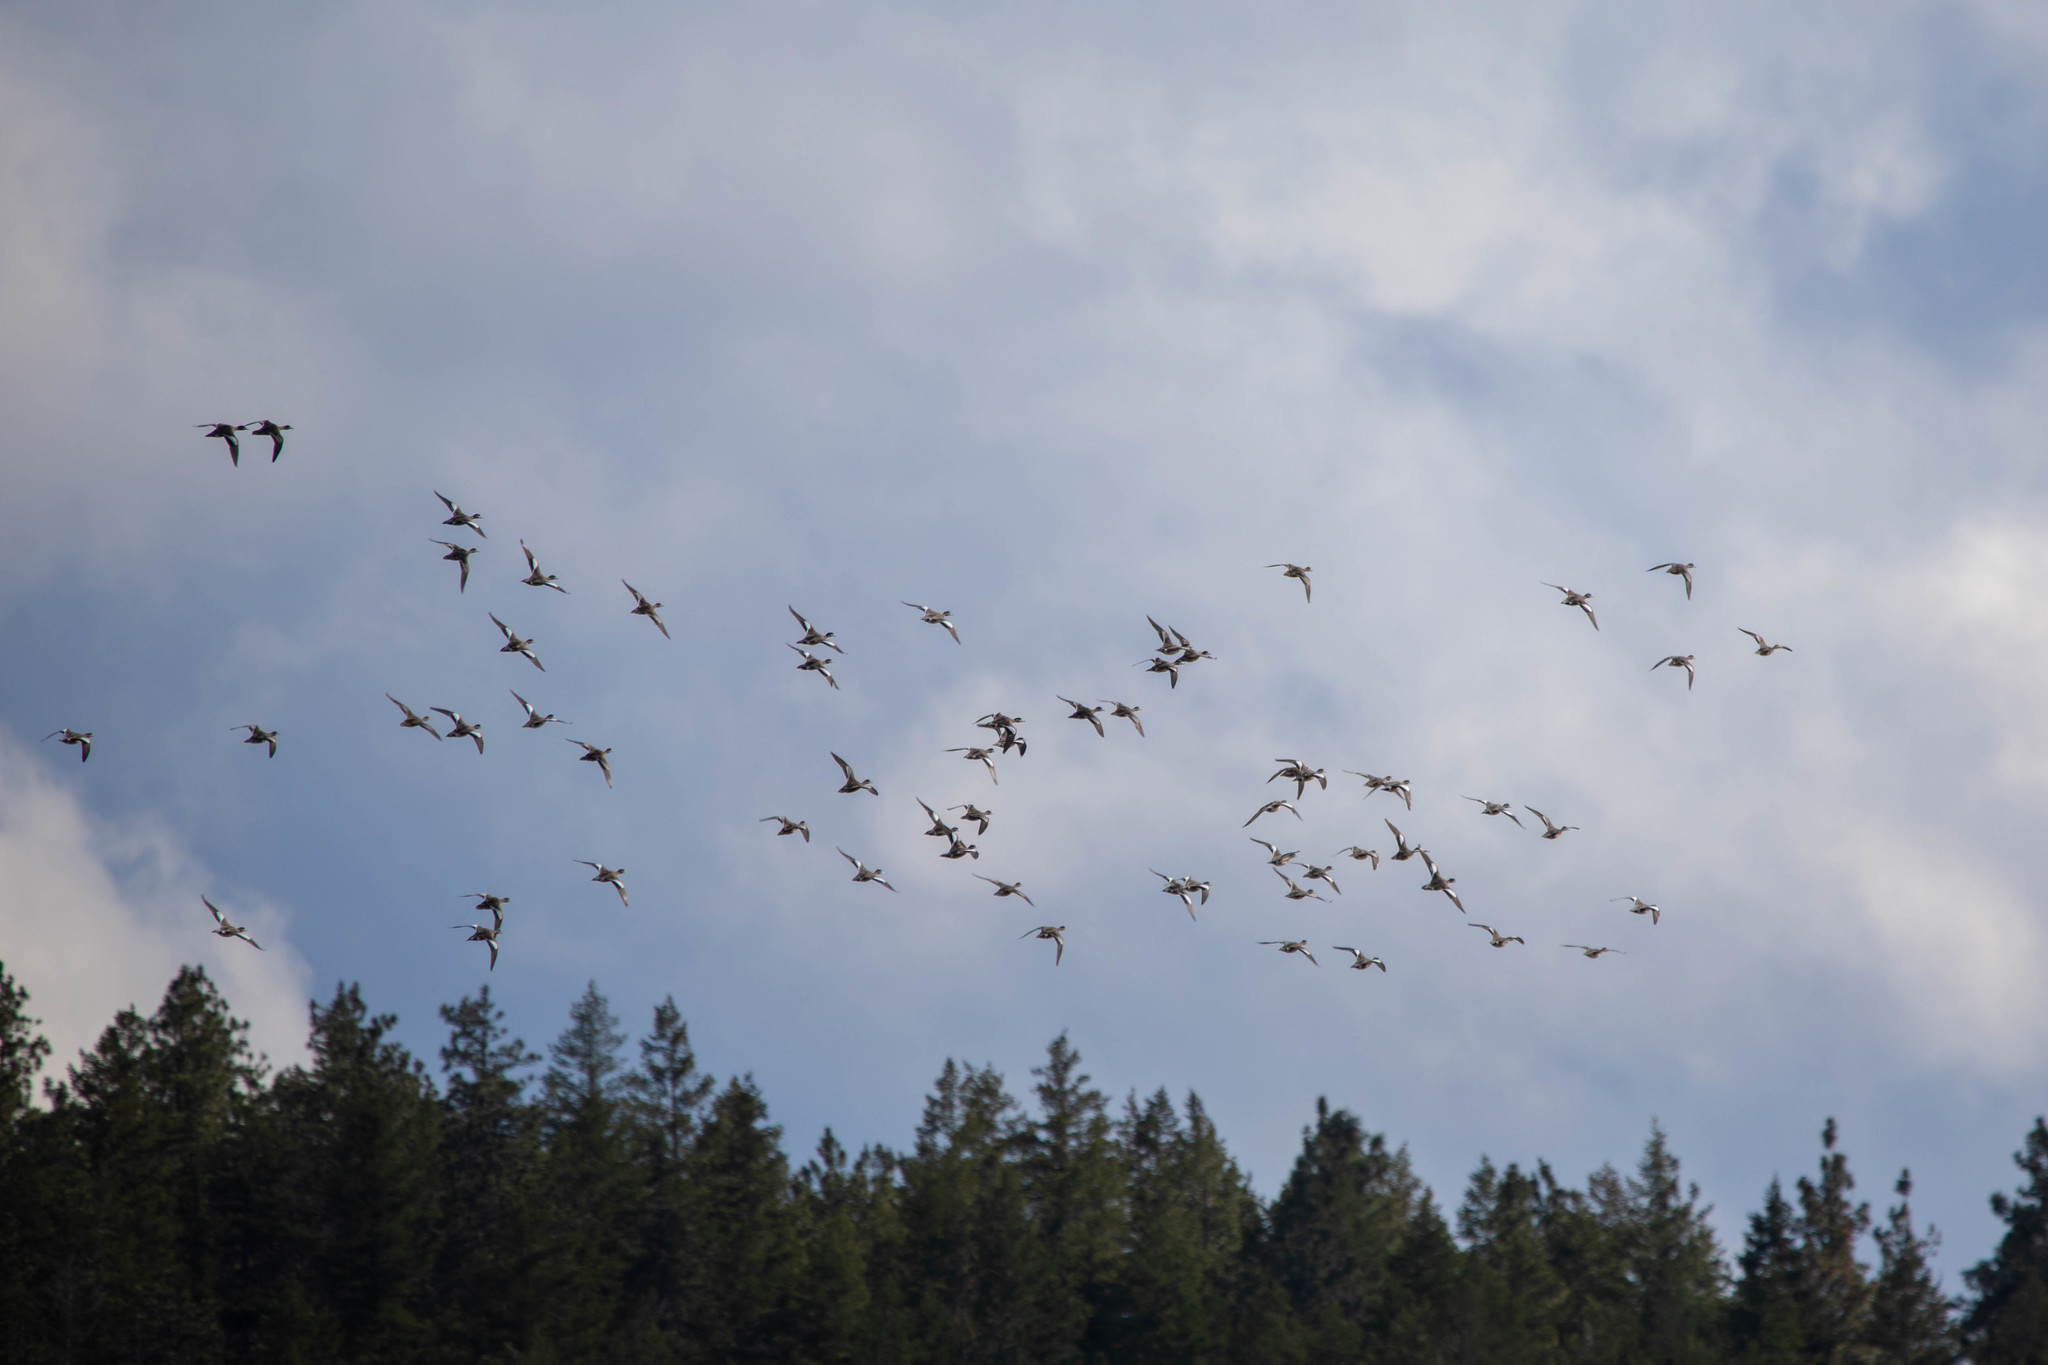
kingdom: Animalia
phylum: Chordata
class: Aves
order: Anseriformes
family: Anatidae
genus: Mareca
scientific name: Mareca americana
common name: American wigeon
